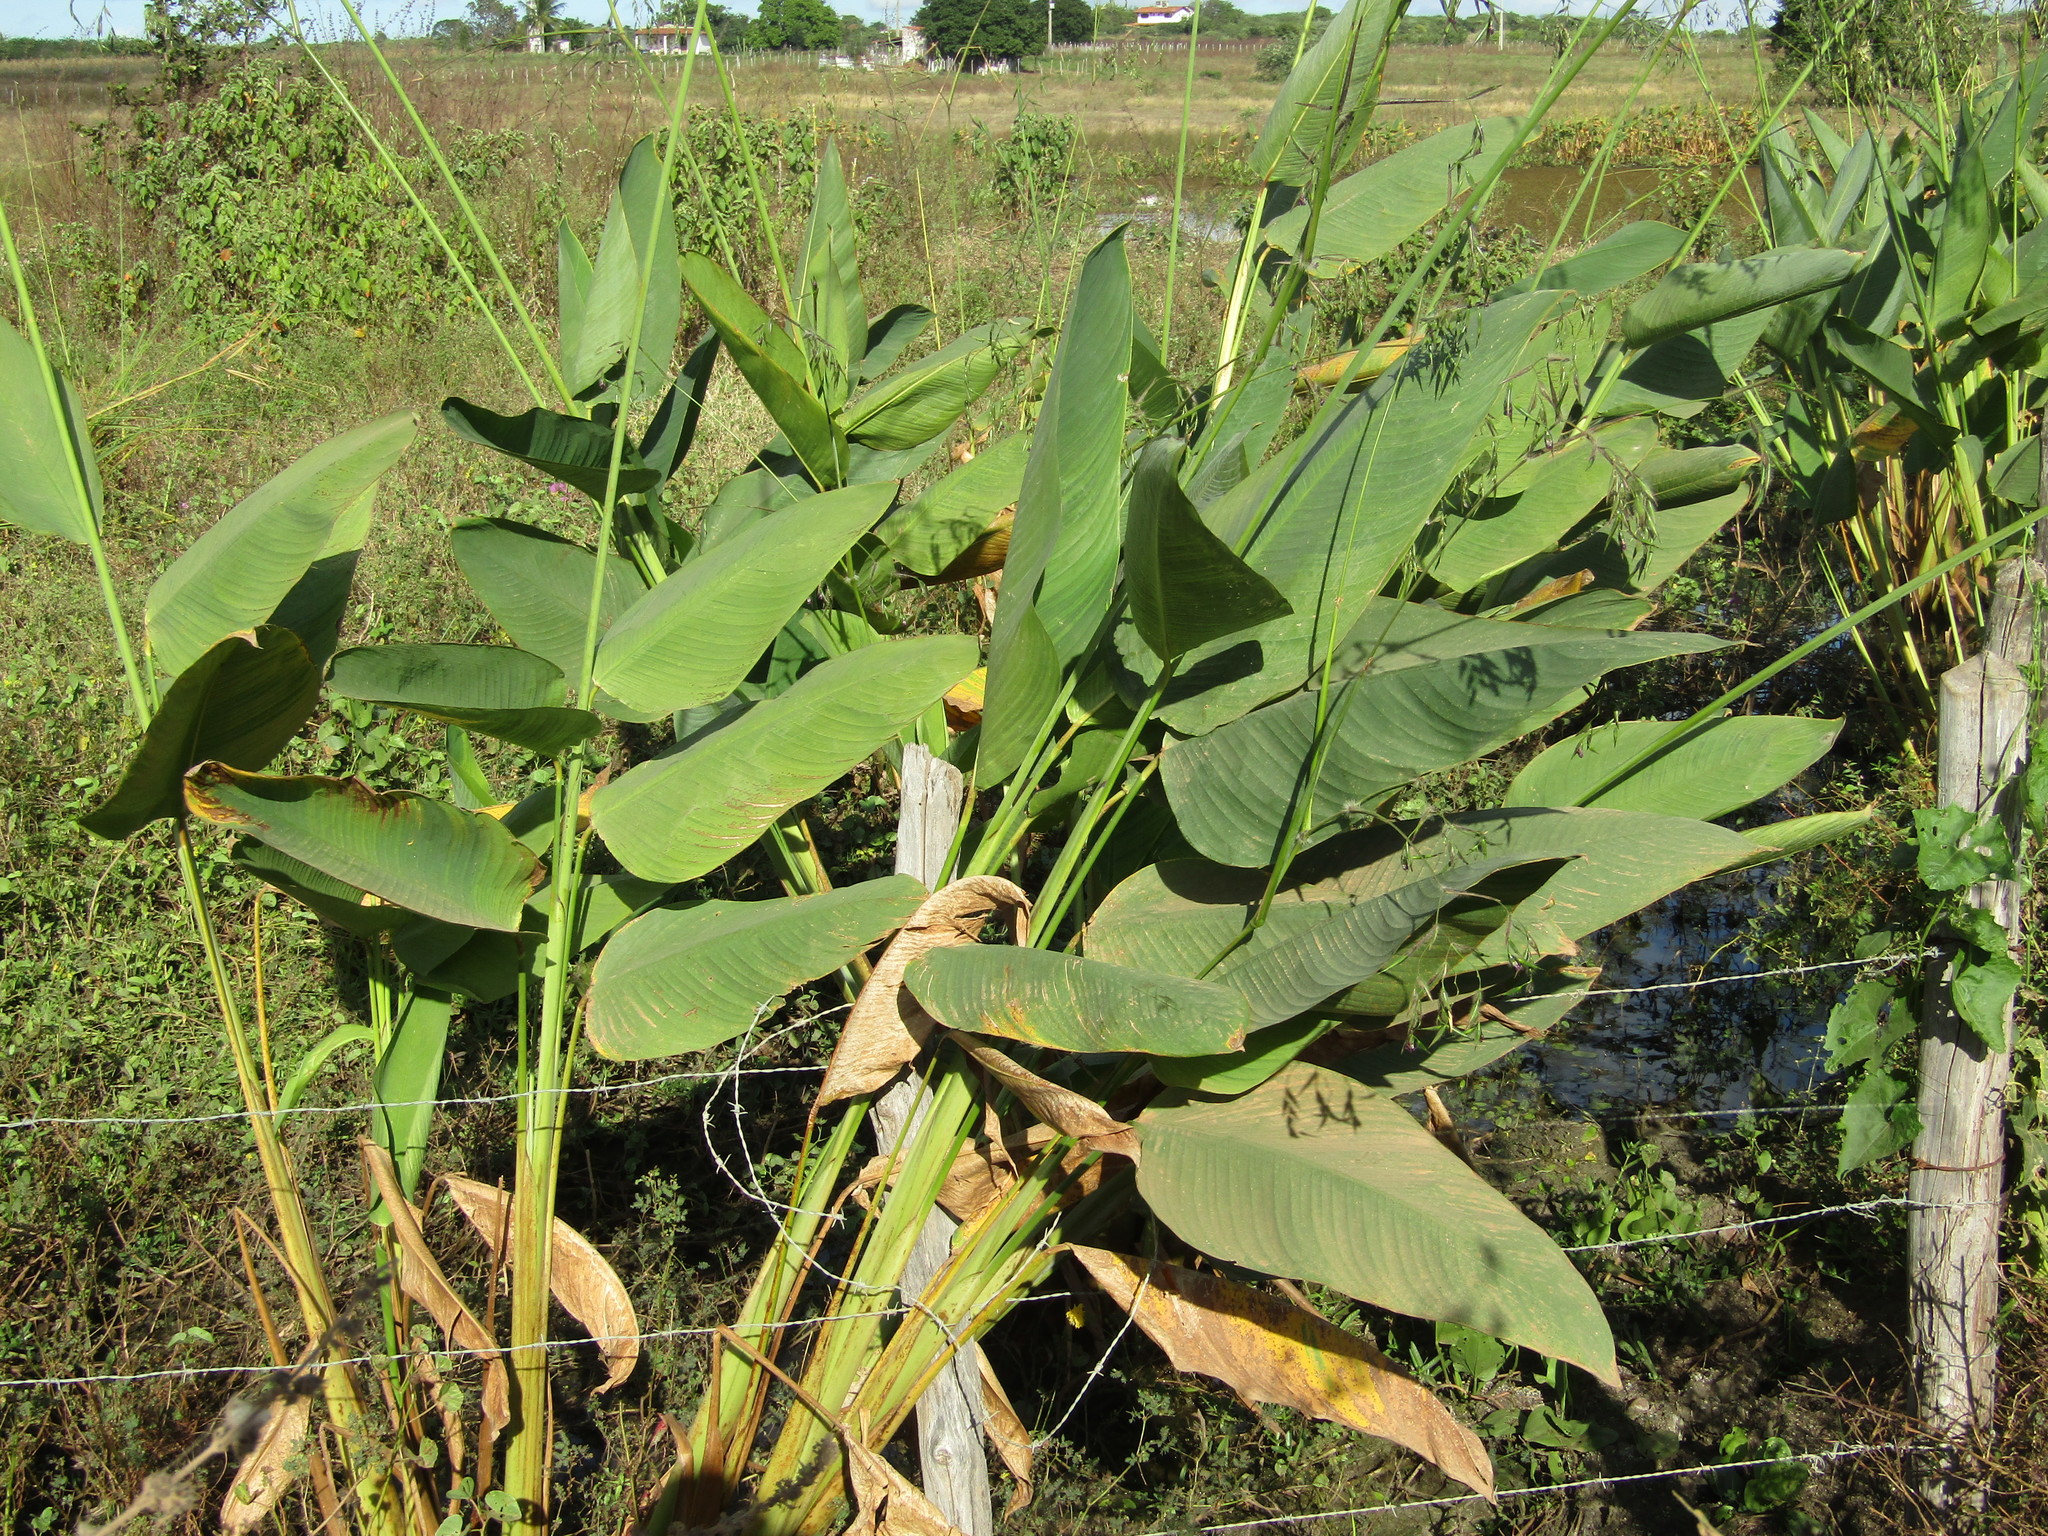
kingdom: Plantae
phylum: Tracheophyta
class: Liliopsida
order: Zingiberales
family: Marantaceae
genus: Thalia
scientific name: Thalia geniculata
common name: Arrowroot
